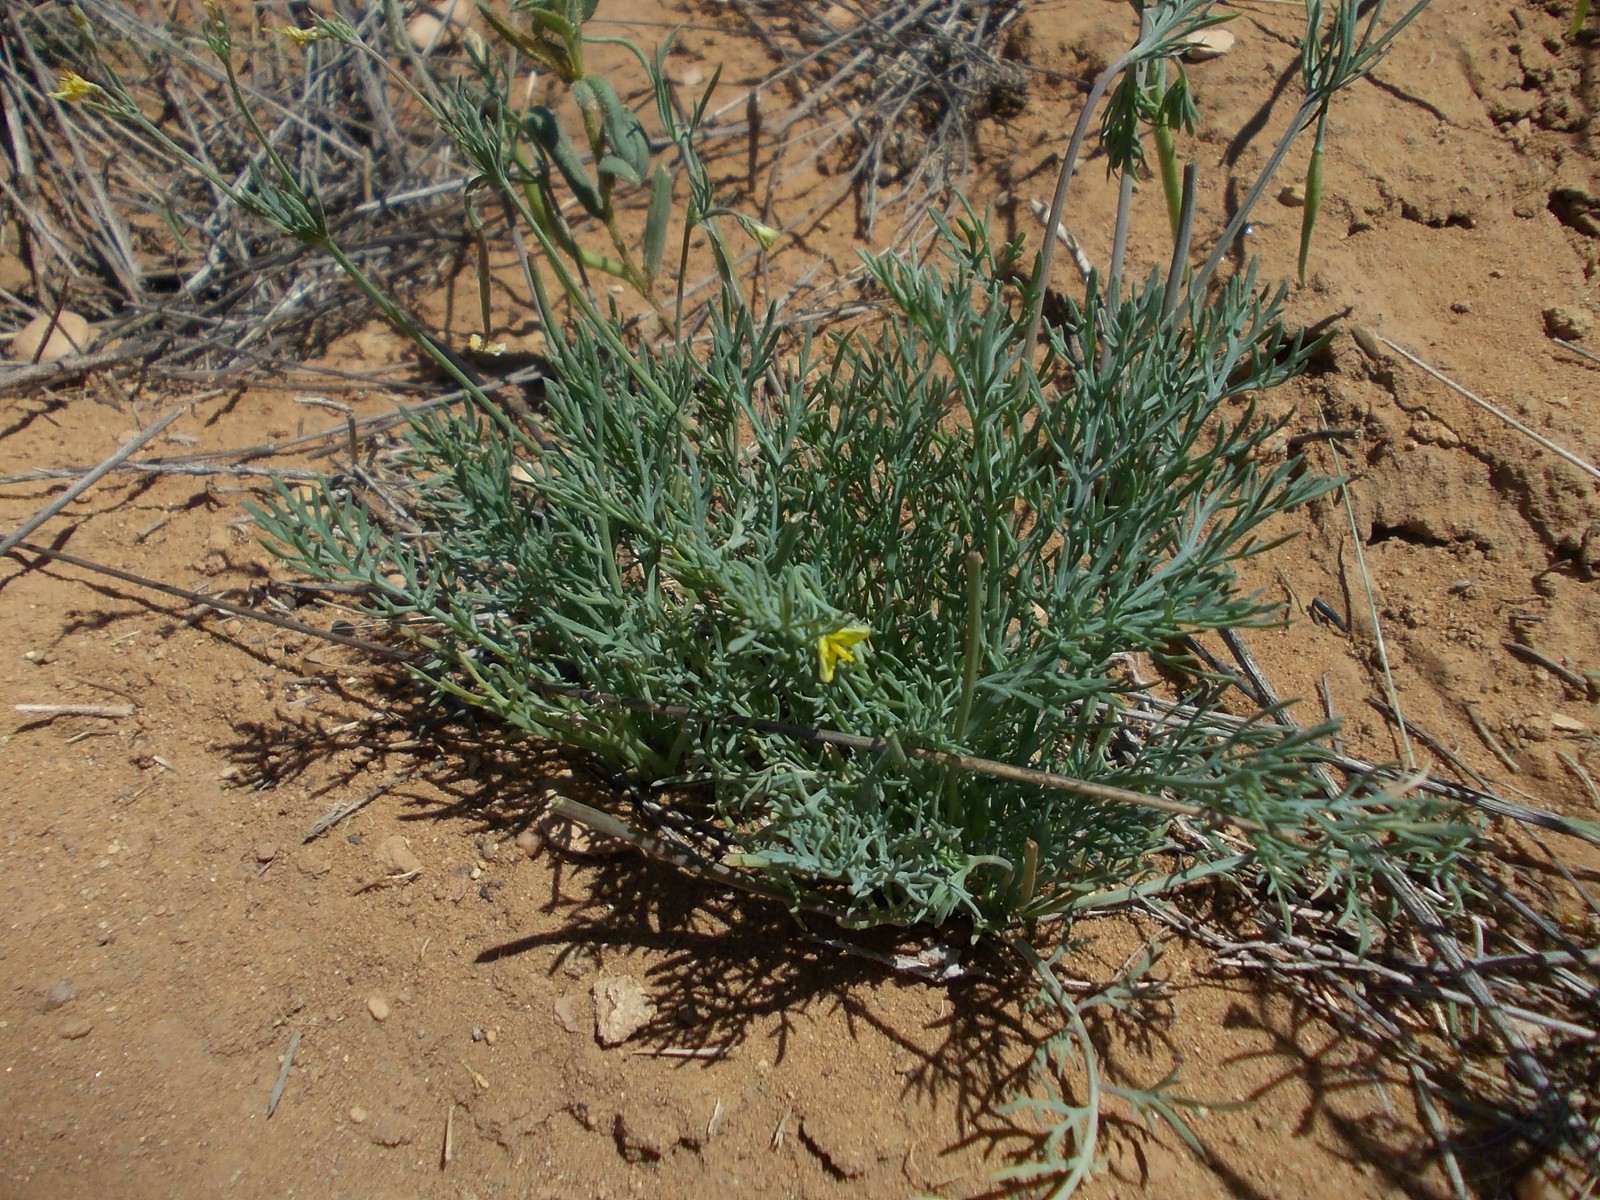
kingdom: Plantae
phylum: Tracheophyta
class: Magnoliopsida
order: Ranunculales
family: Papaveraceae
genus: Hypecoum
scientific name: Hypecoum pendulum
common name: Nodding hypecoum
